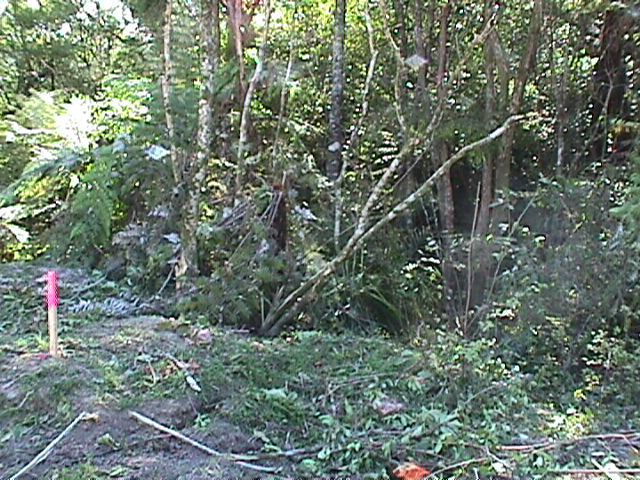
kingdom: Plantae
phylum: Tracheophyta
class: Pinopsida
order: Pinales
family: Phyllocladaceae
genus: Phyllocladus
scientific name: Phyllocladus trichomanoides
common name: Celery pine
